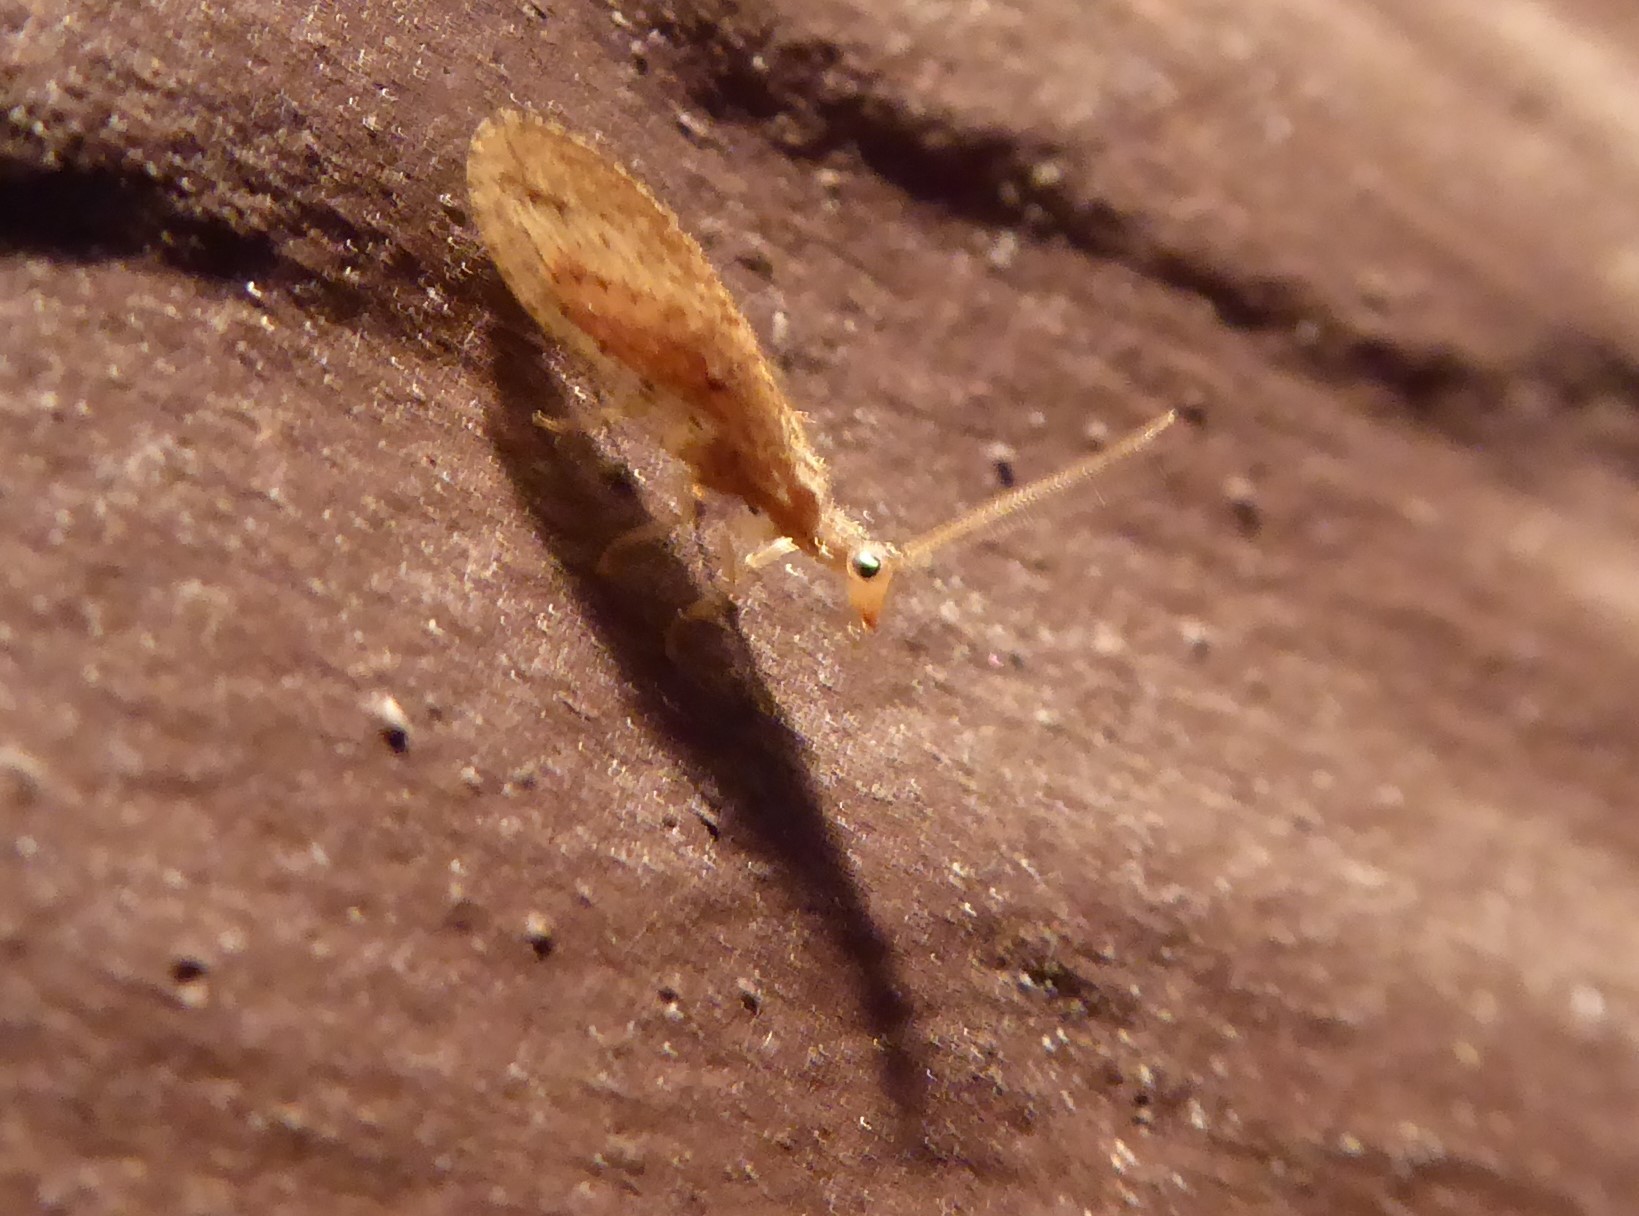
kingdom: Animalia
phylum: Arthropoda
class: Insecta
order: Neuroptera
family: Hemerobiidae
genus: Micromus
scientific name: Micromus tasmaniae
